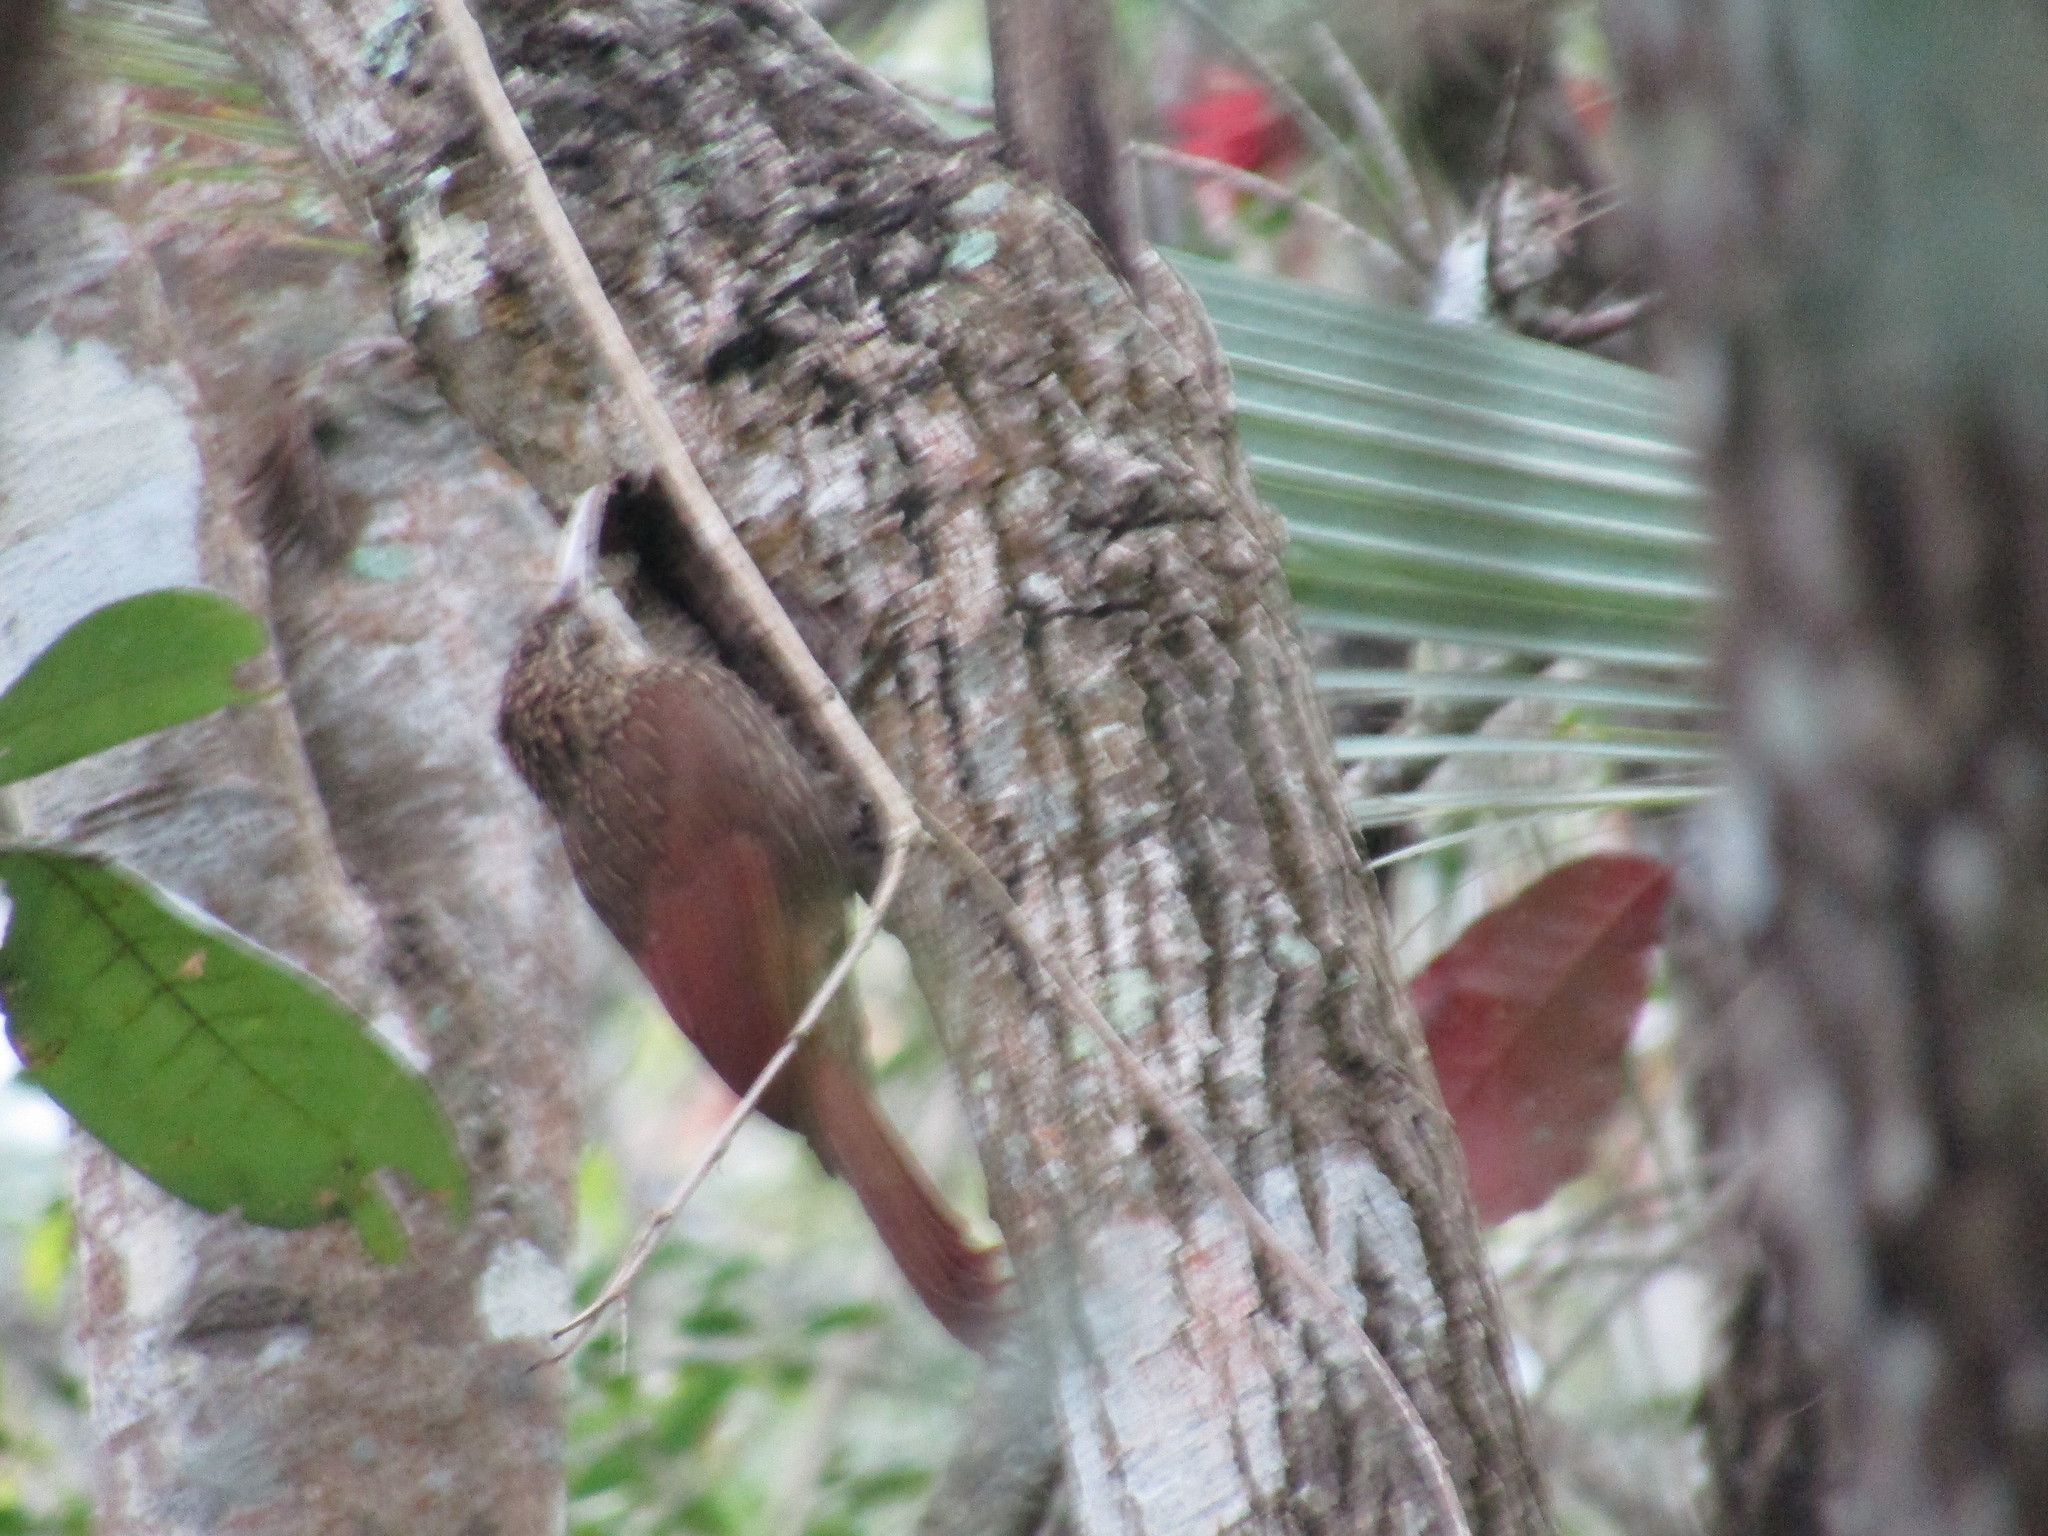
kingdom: Animalia
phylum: Chordata
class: Aves
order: Passeriformes
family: Furnariidae
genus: Xiphorhynchus
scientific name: Xiphorhynchus flavigaster
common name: Ivory-billed woodcreeper
